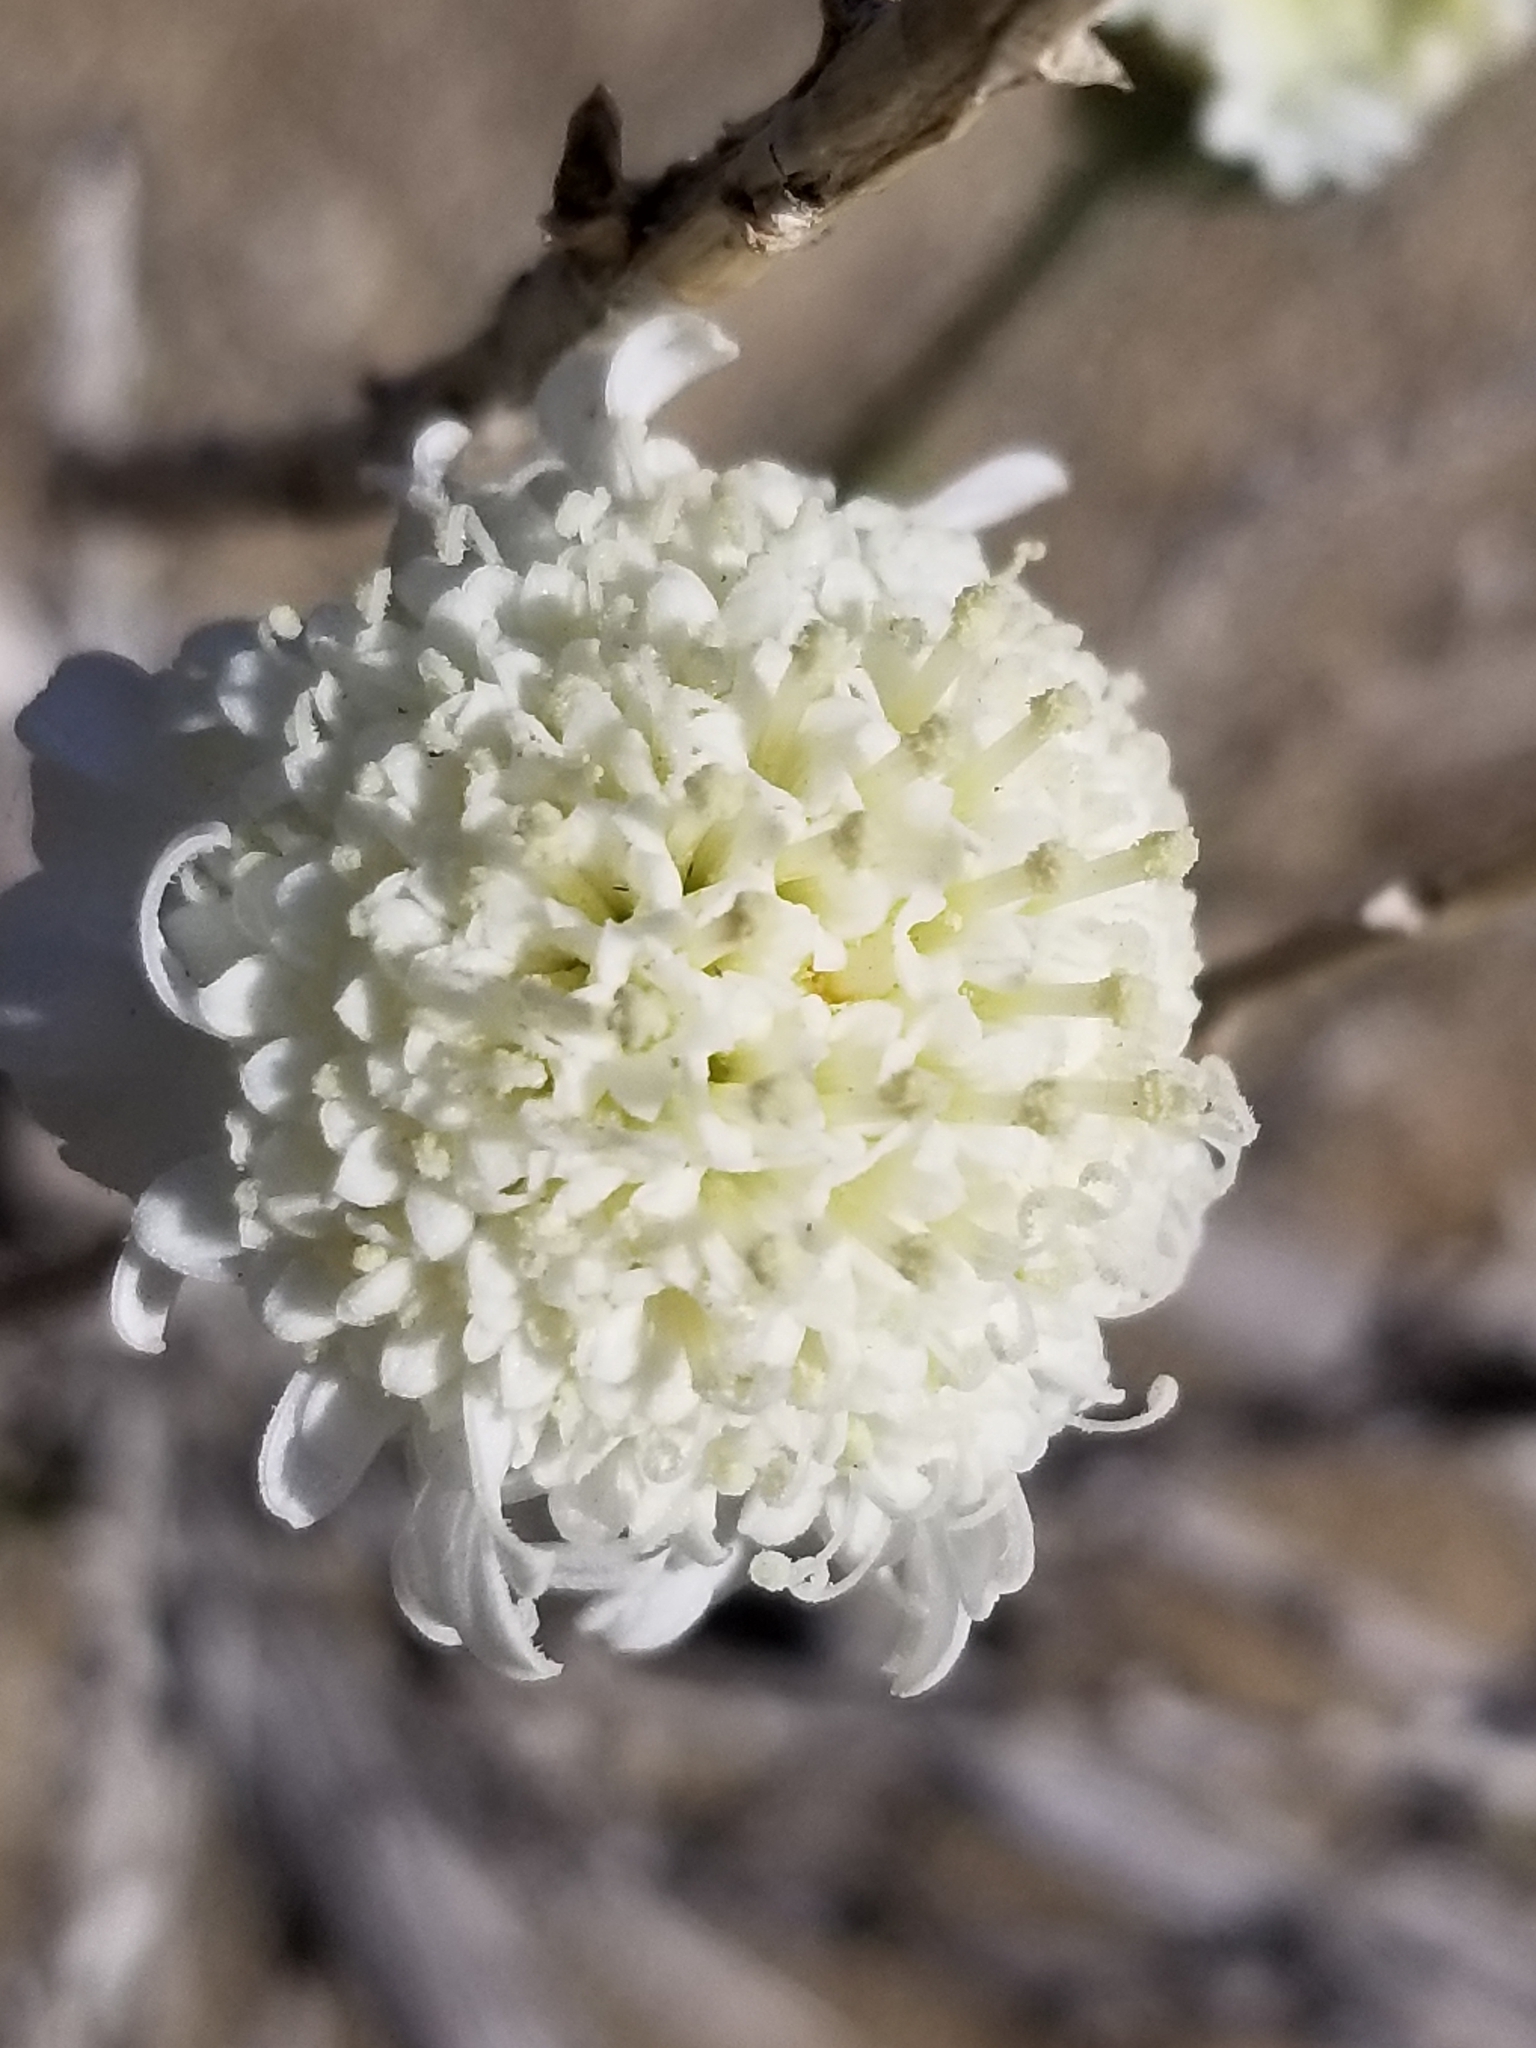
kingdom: Plantae
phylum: Tracheophyta
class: Magnoliopsida
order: Asterales
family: Asteraceae
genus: Chaenactis
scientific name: Chaenactis fremontii
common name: Fremont pincushion
